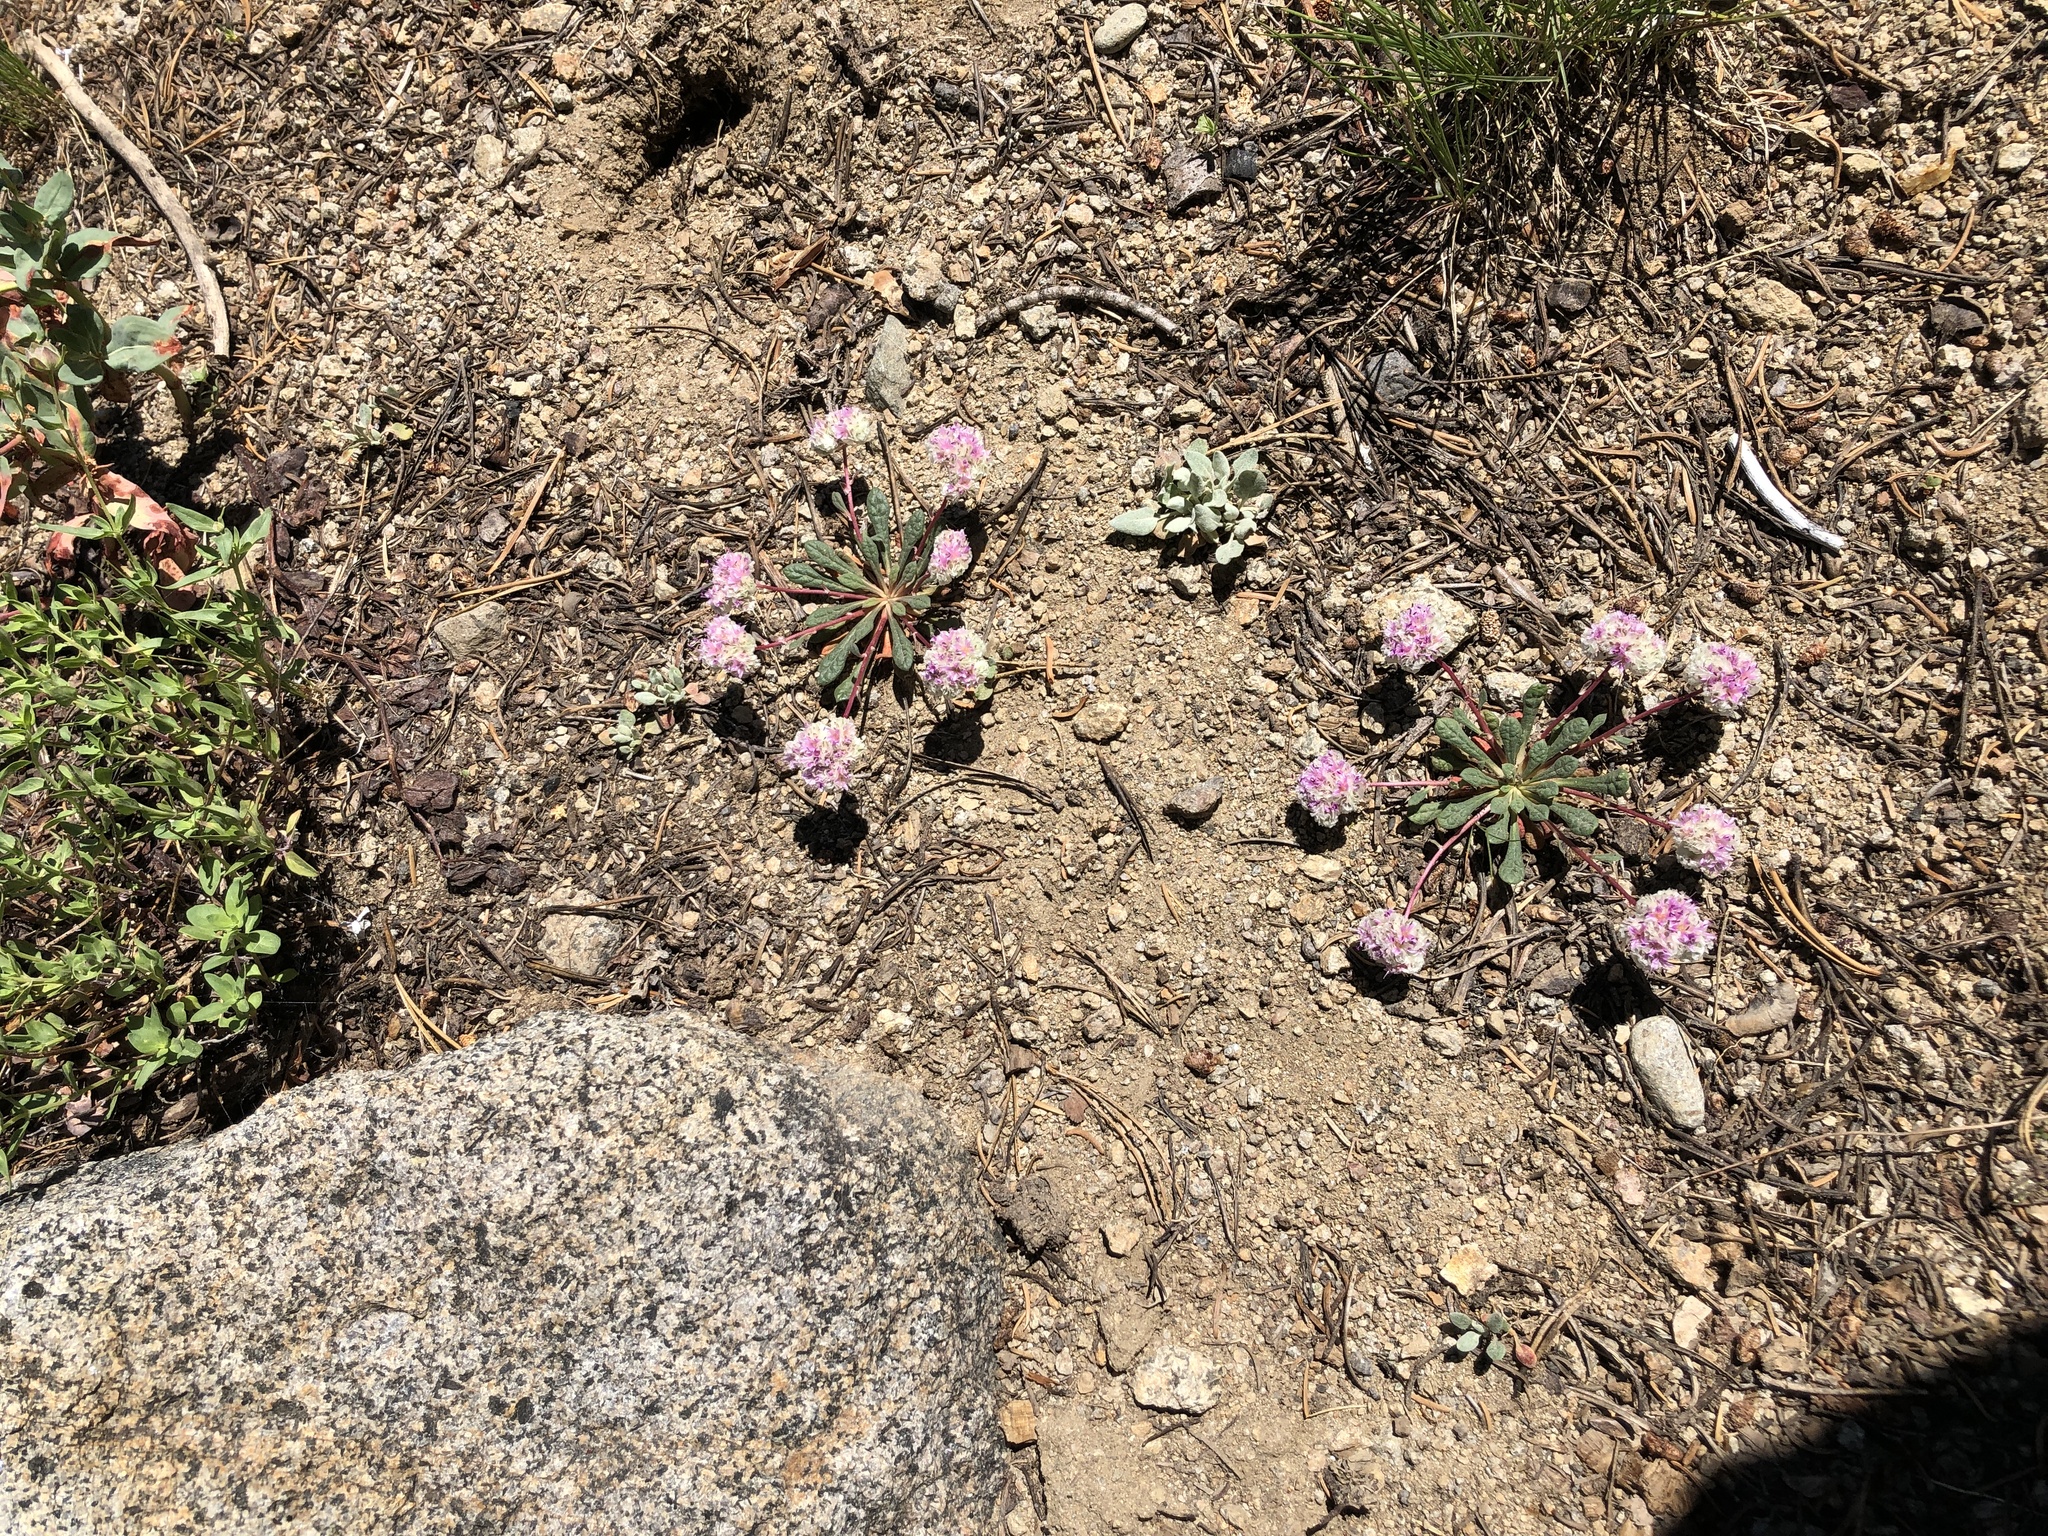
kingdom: Plantae
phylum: Tracheophyta
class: Magnoliopsida
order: Caryophyllales
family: Montiaceae
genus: Calyptridium
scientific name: Calyptridium monospermum
